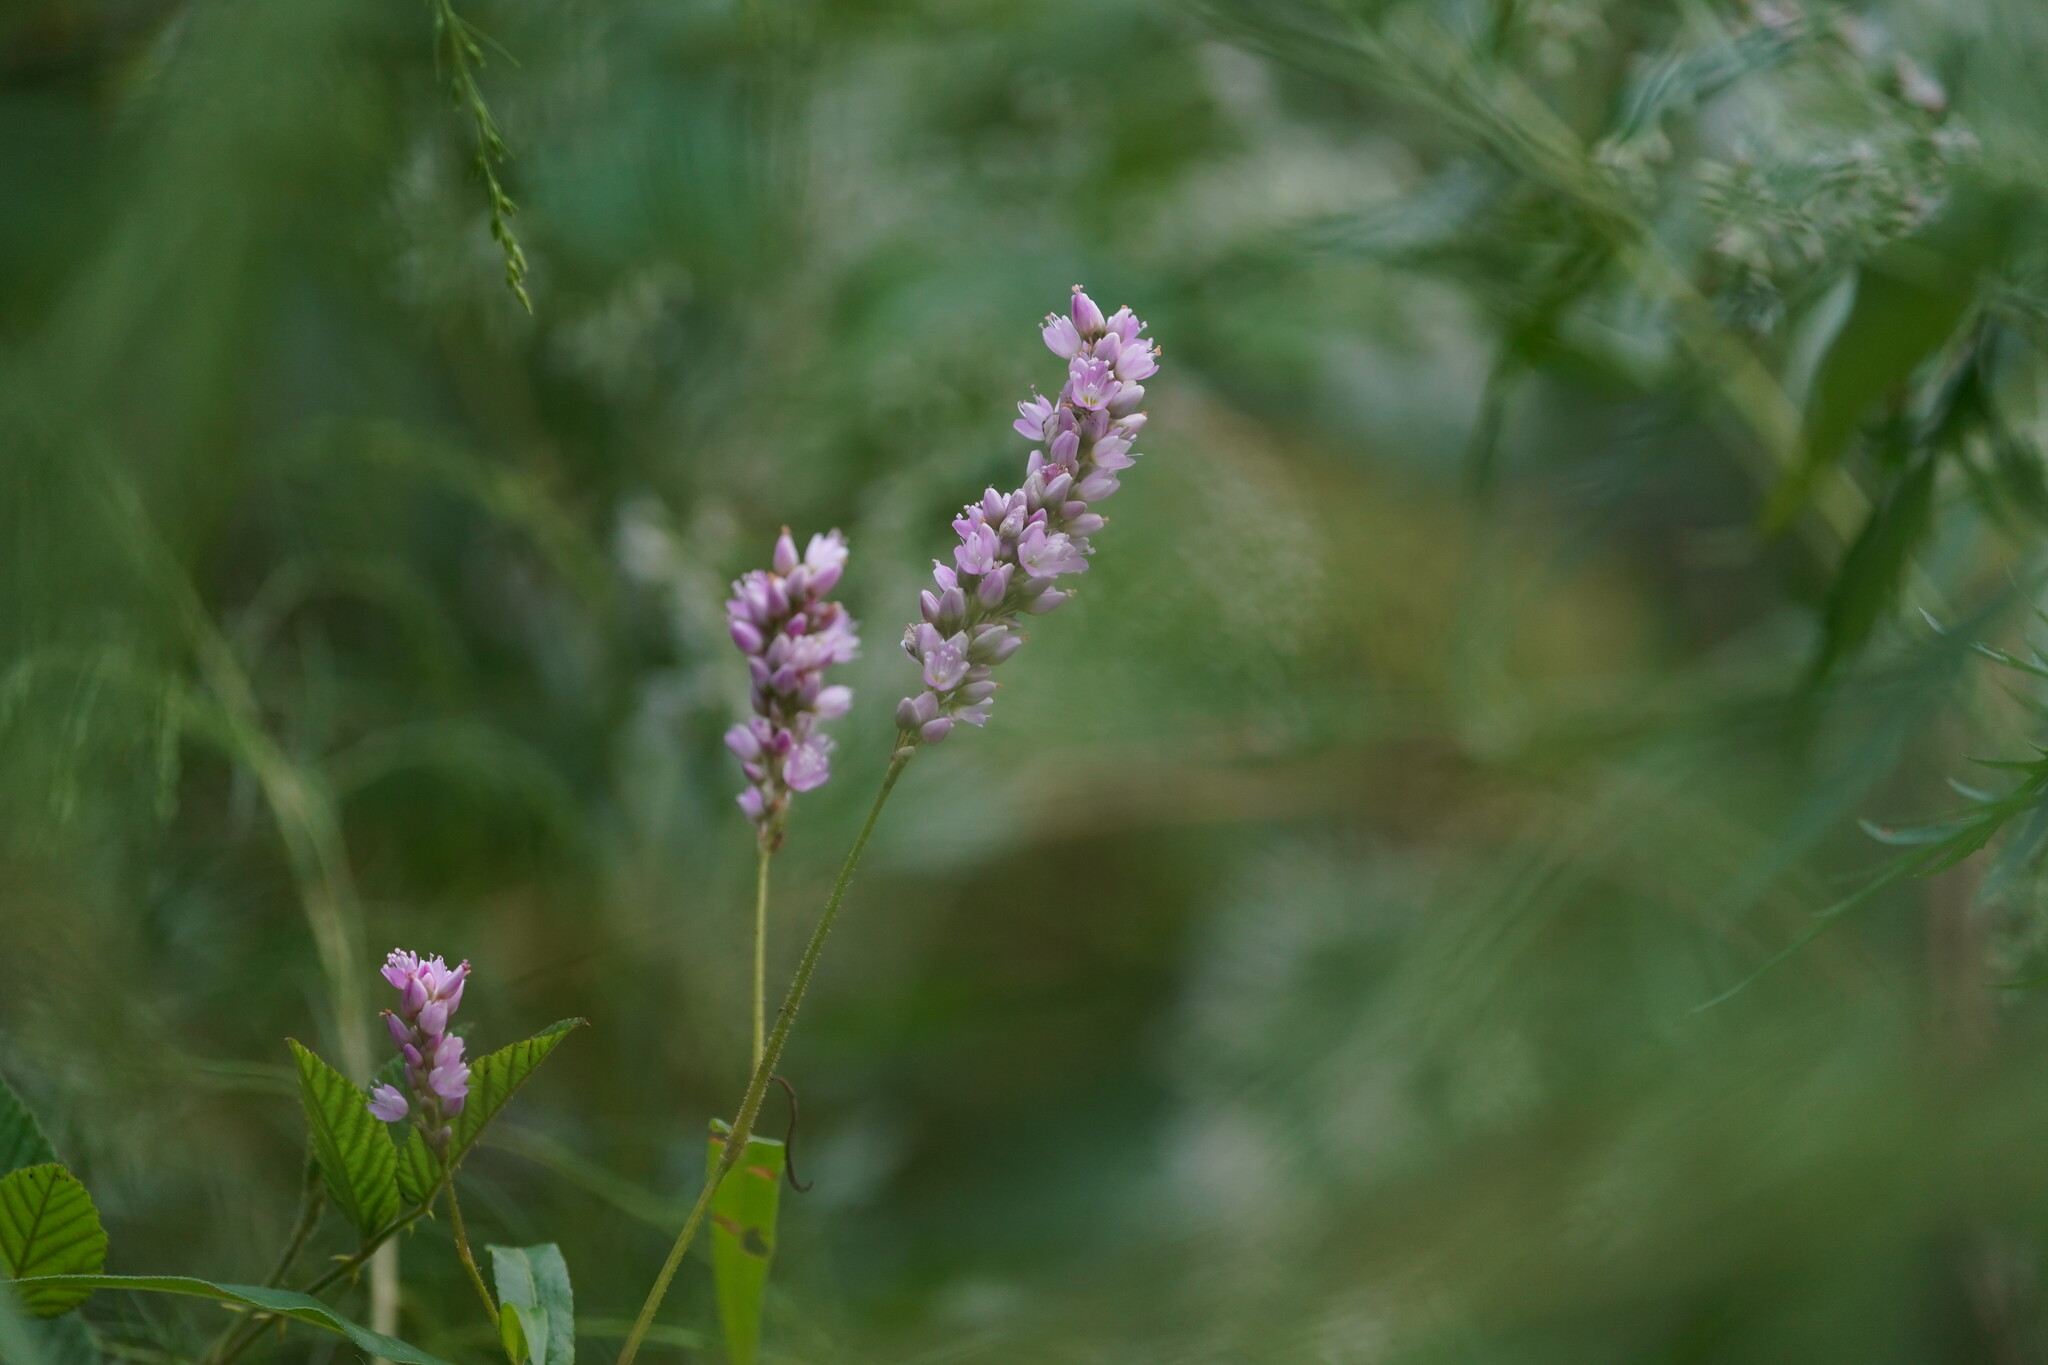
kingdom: Plantae
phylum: Tracheophyta
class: Magnoliopsida
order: Caryophyllales
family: Polygonaceae
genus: Persicaria
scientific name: Persicaria bicornis
